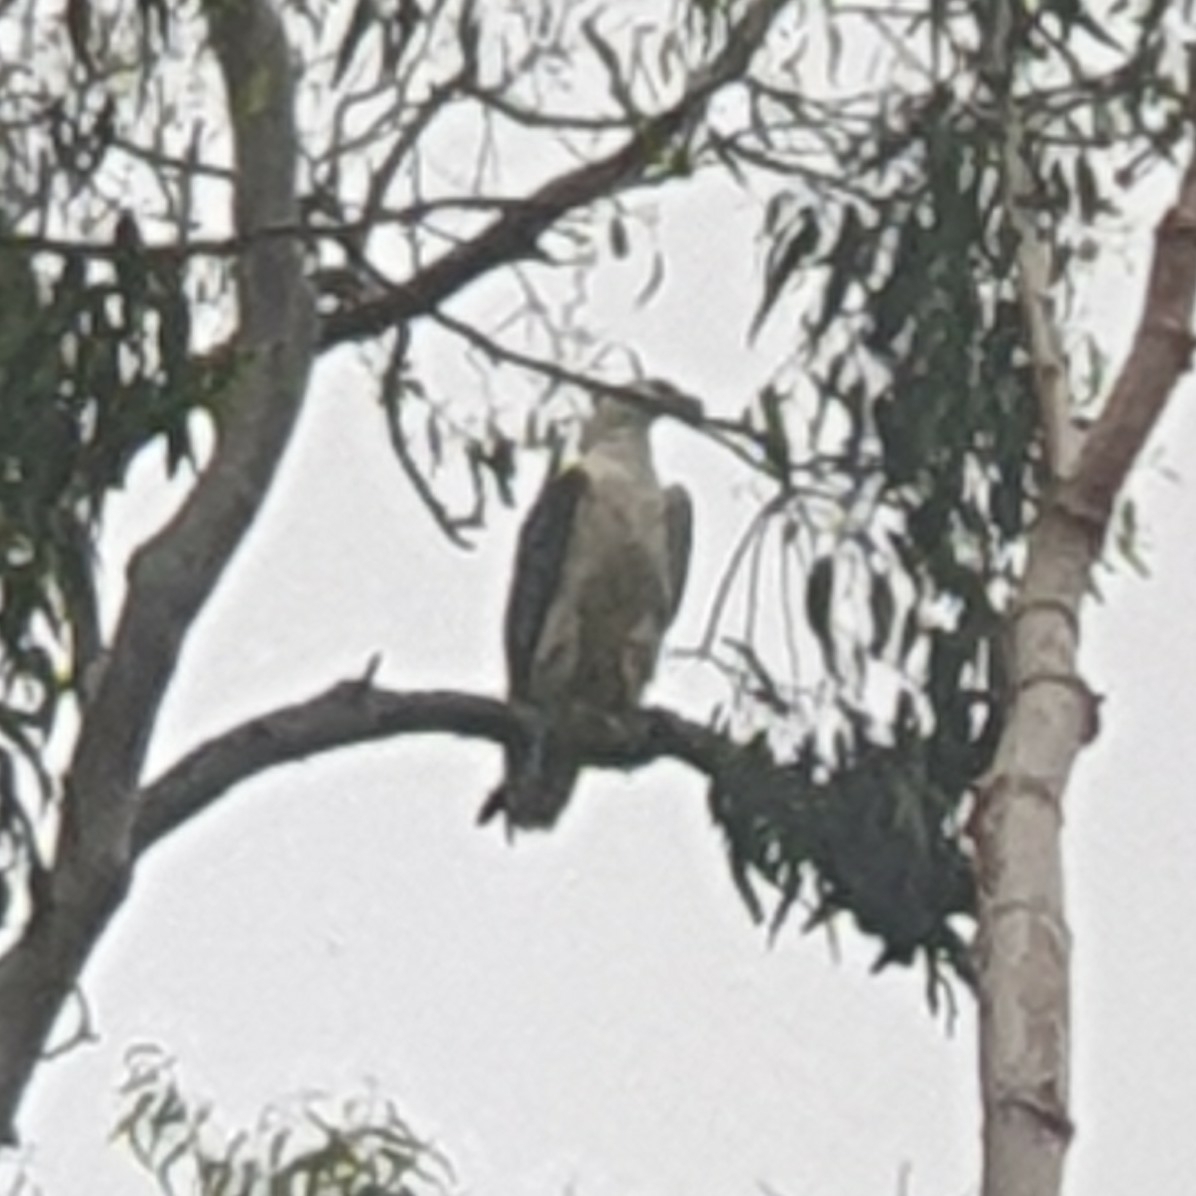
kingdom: Animalia
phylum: Chordata
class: Aves
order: Accipitriformes
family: Accipitridae
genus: Haliaeetus
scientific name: Haliaeetus leucogaster
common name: White-bellied sea eagle
